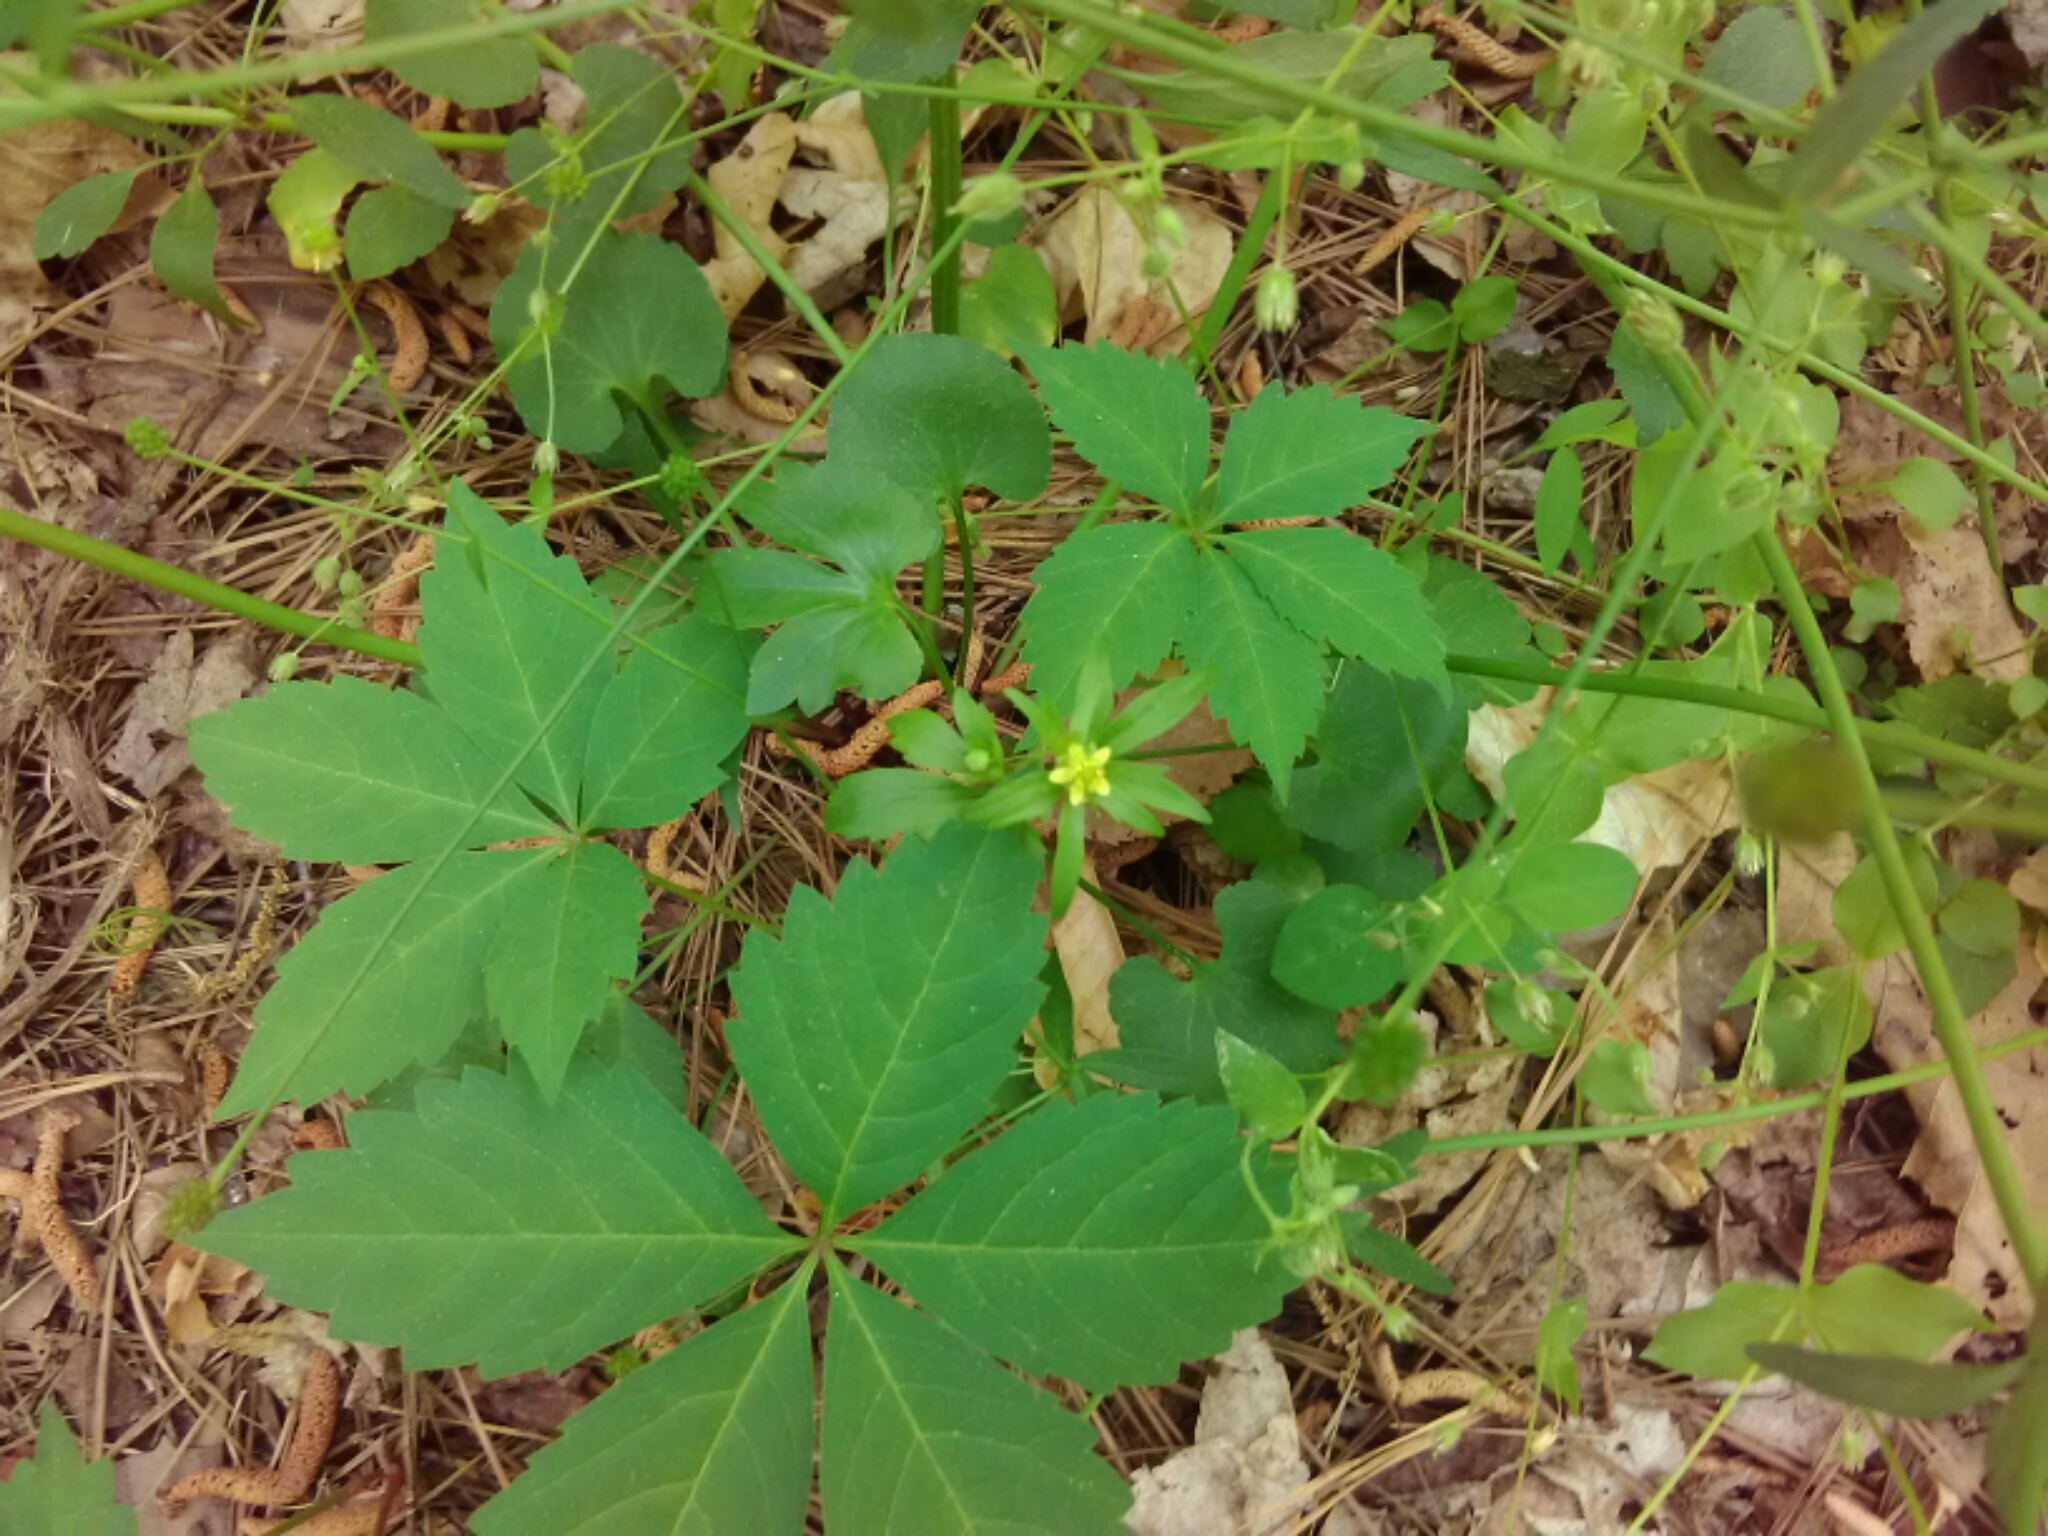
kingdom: Plantae
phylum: Tracheophyta
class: Magnoliopsida
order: Vitales
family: Vitaceae
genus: Parthenocissus
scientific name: Parthenocissus quinquefolia
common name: Virginia-creeper
